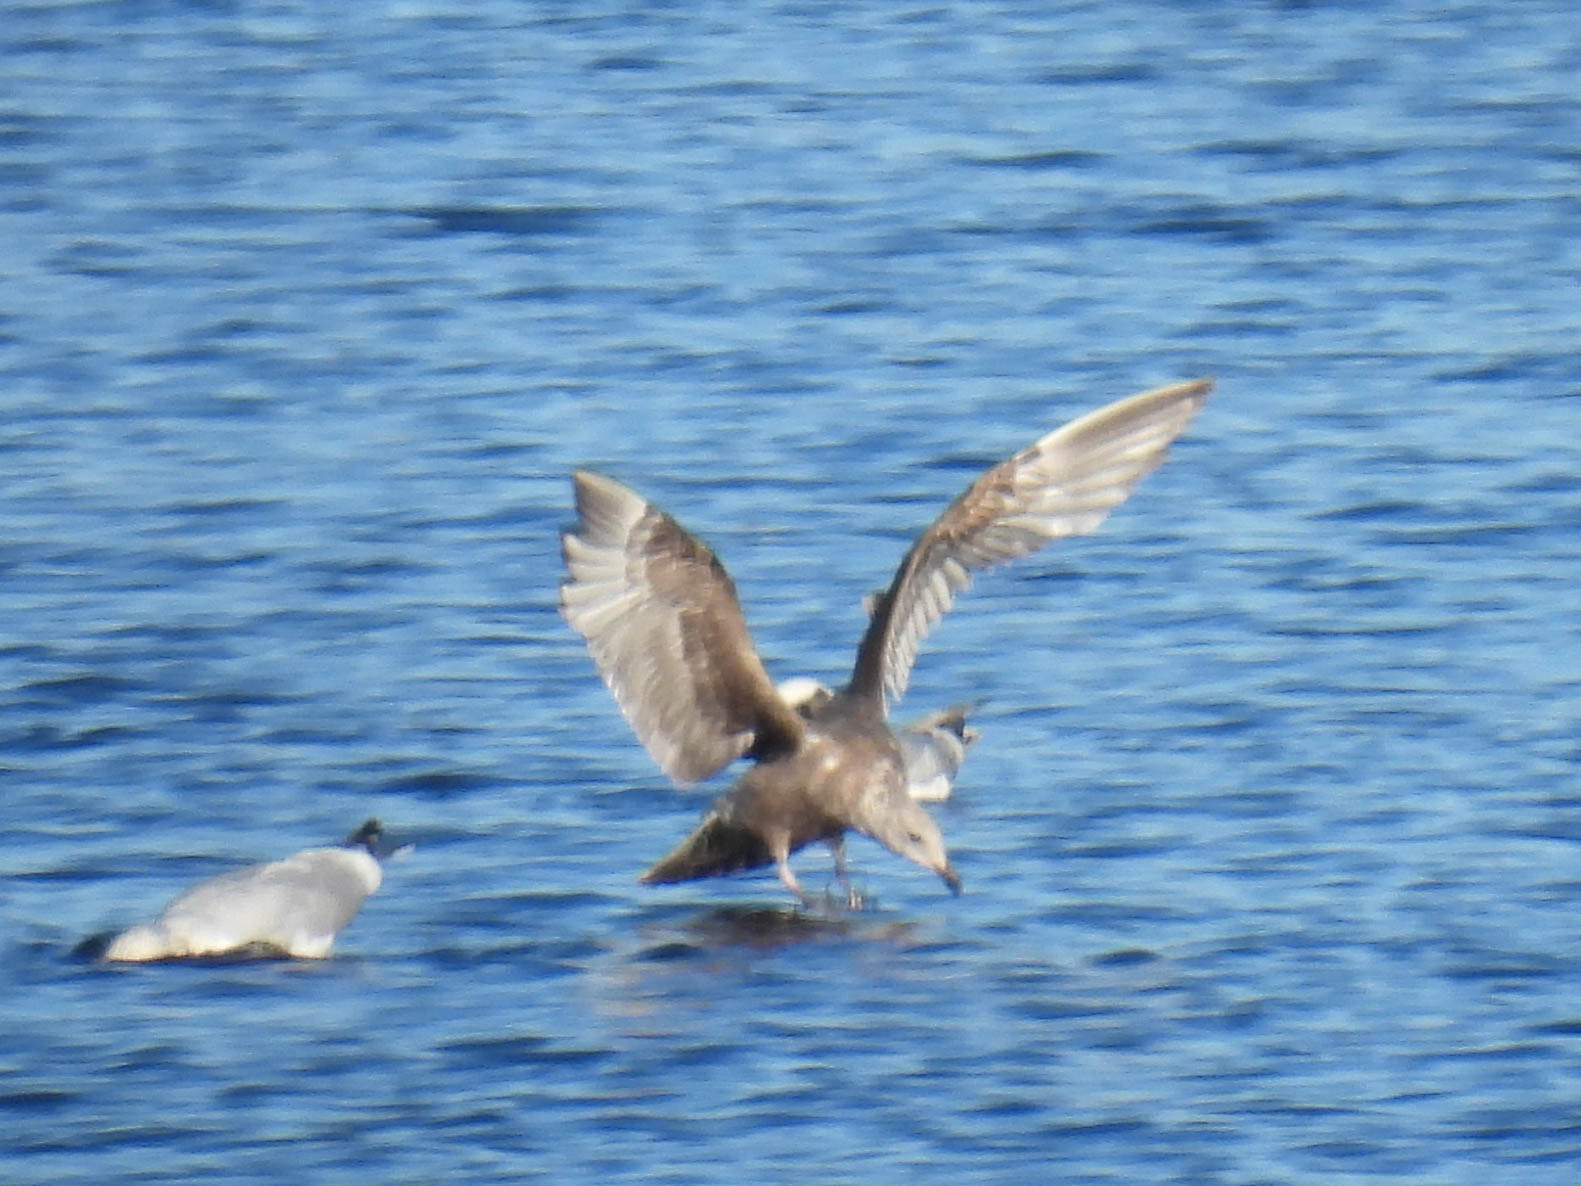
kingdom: Animalia
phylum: Chordata
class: Aves
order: Charadriiformes
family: Laridae
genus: Larus
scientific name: Larus argentatus
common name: Herring gull
